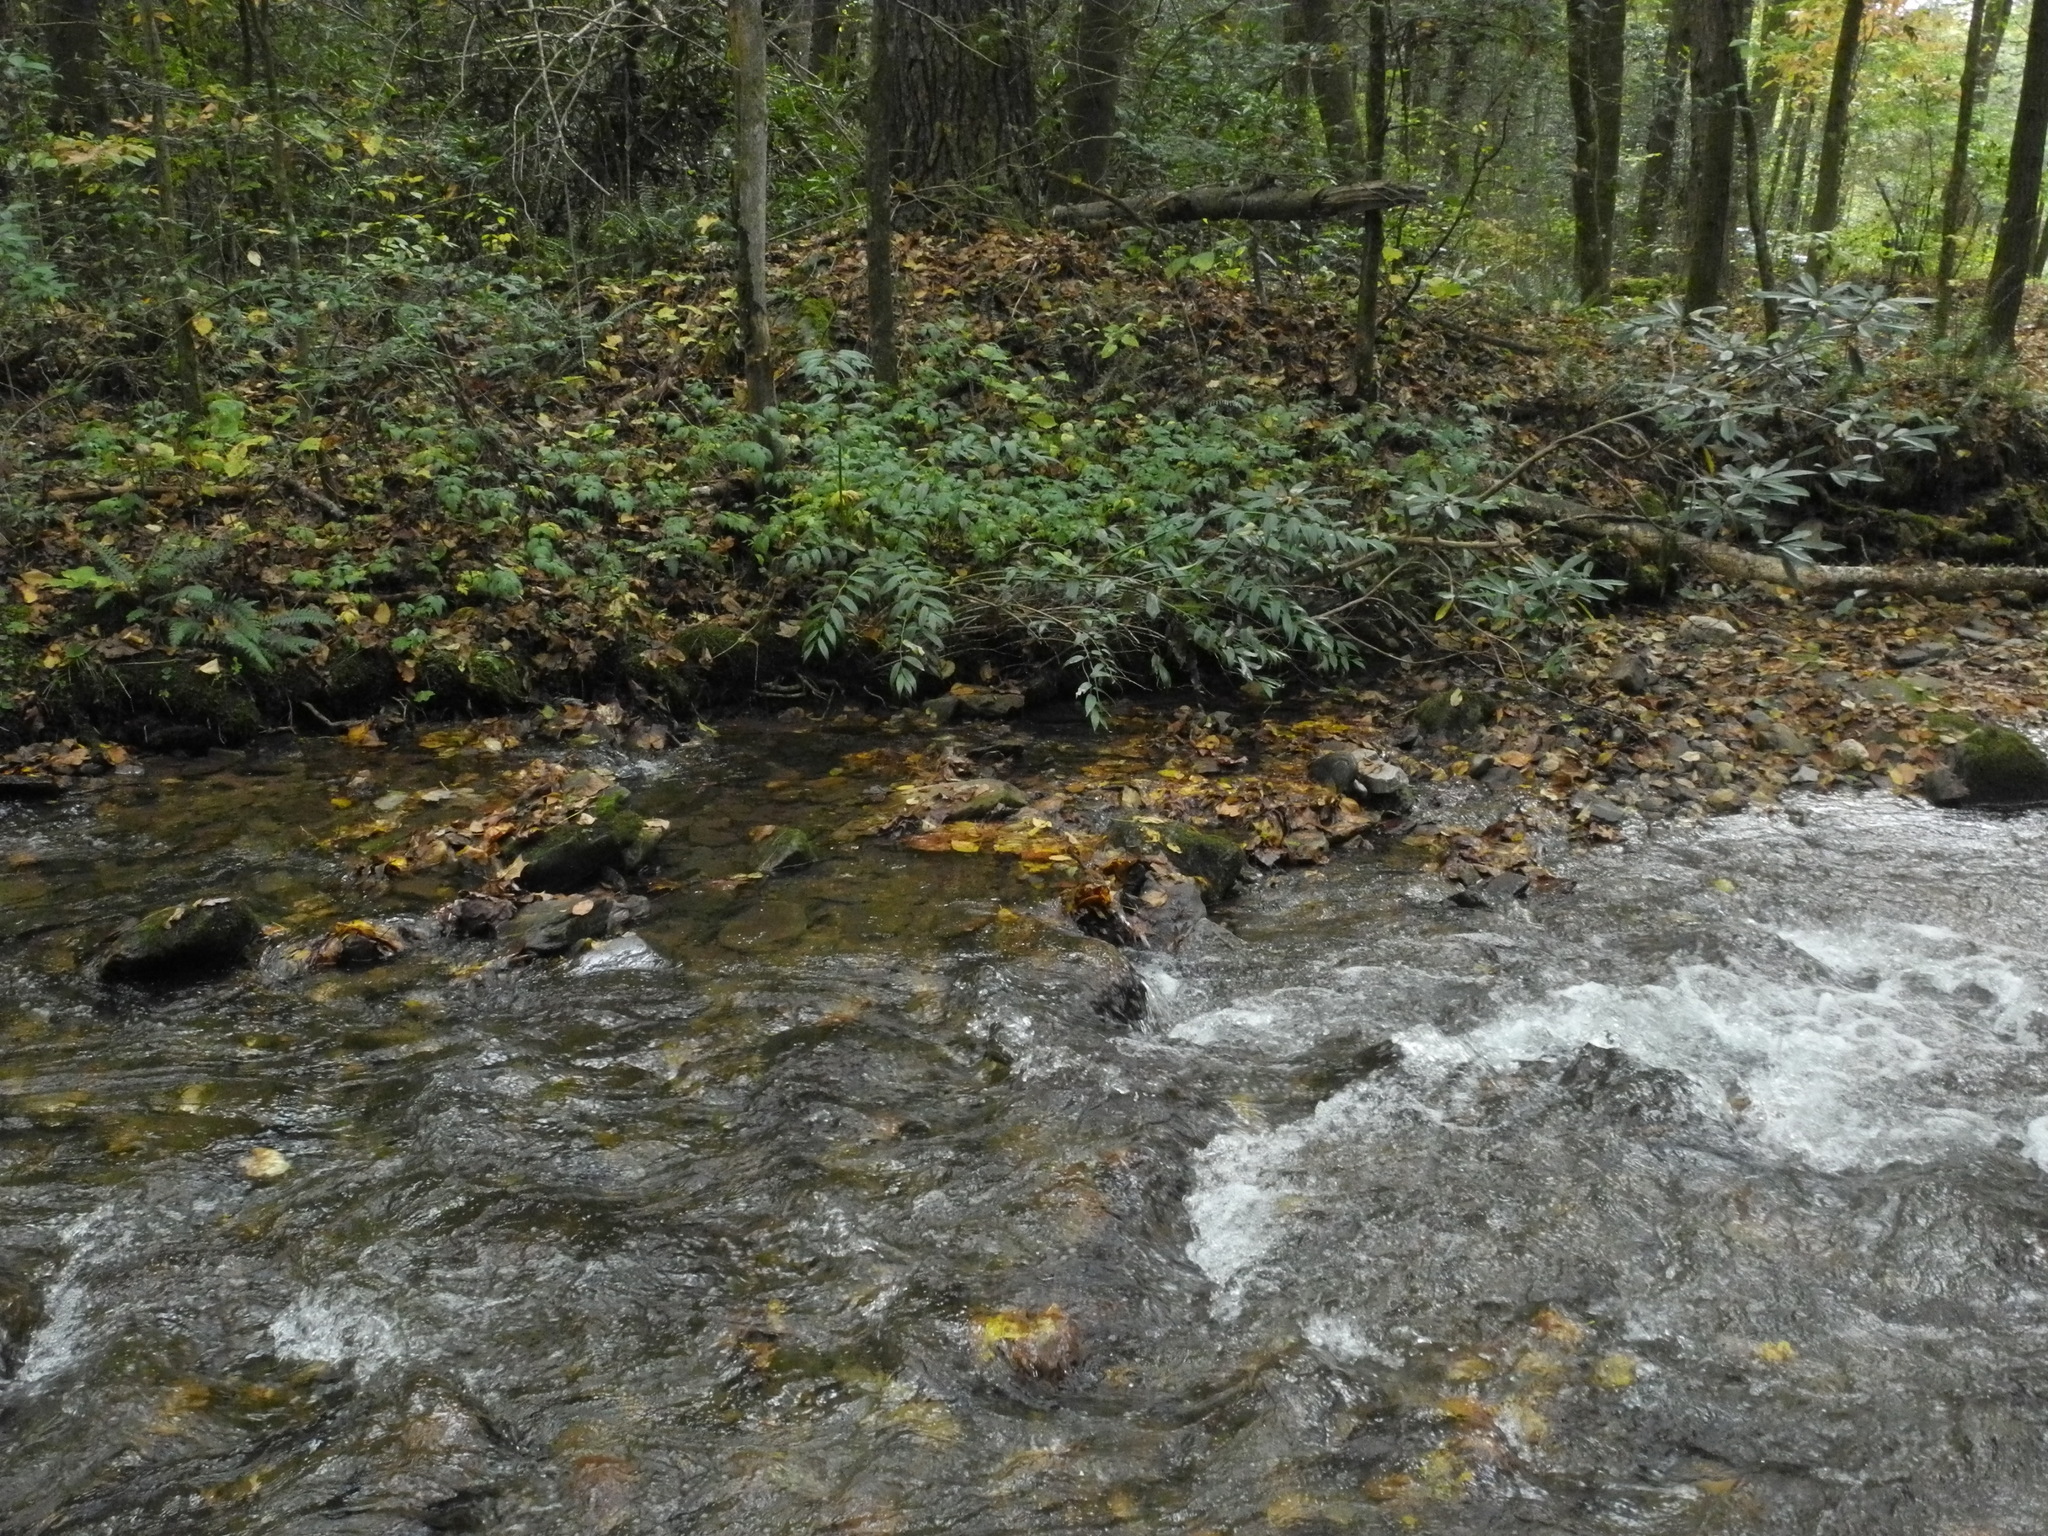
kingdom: Plantae
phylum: Tracheophyta
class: Magnoliopsida
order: Ericales
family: Ericaceae
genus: Leucothoe
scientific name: Leucothoe fontanesiana
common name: Fetterbush
